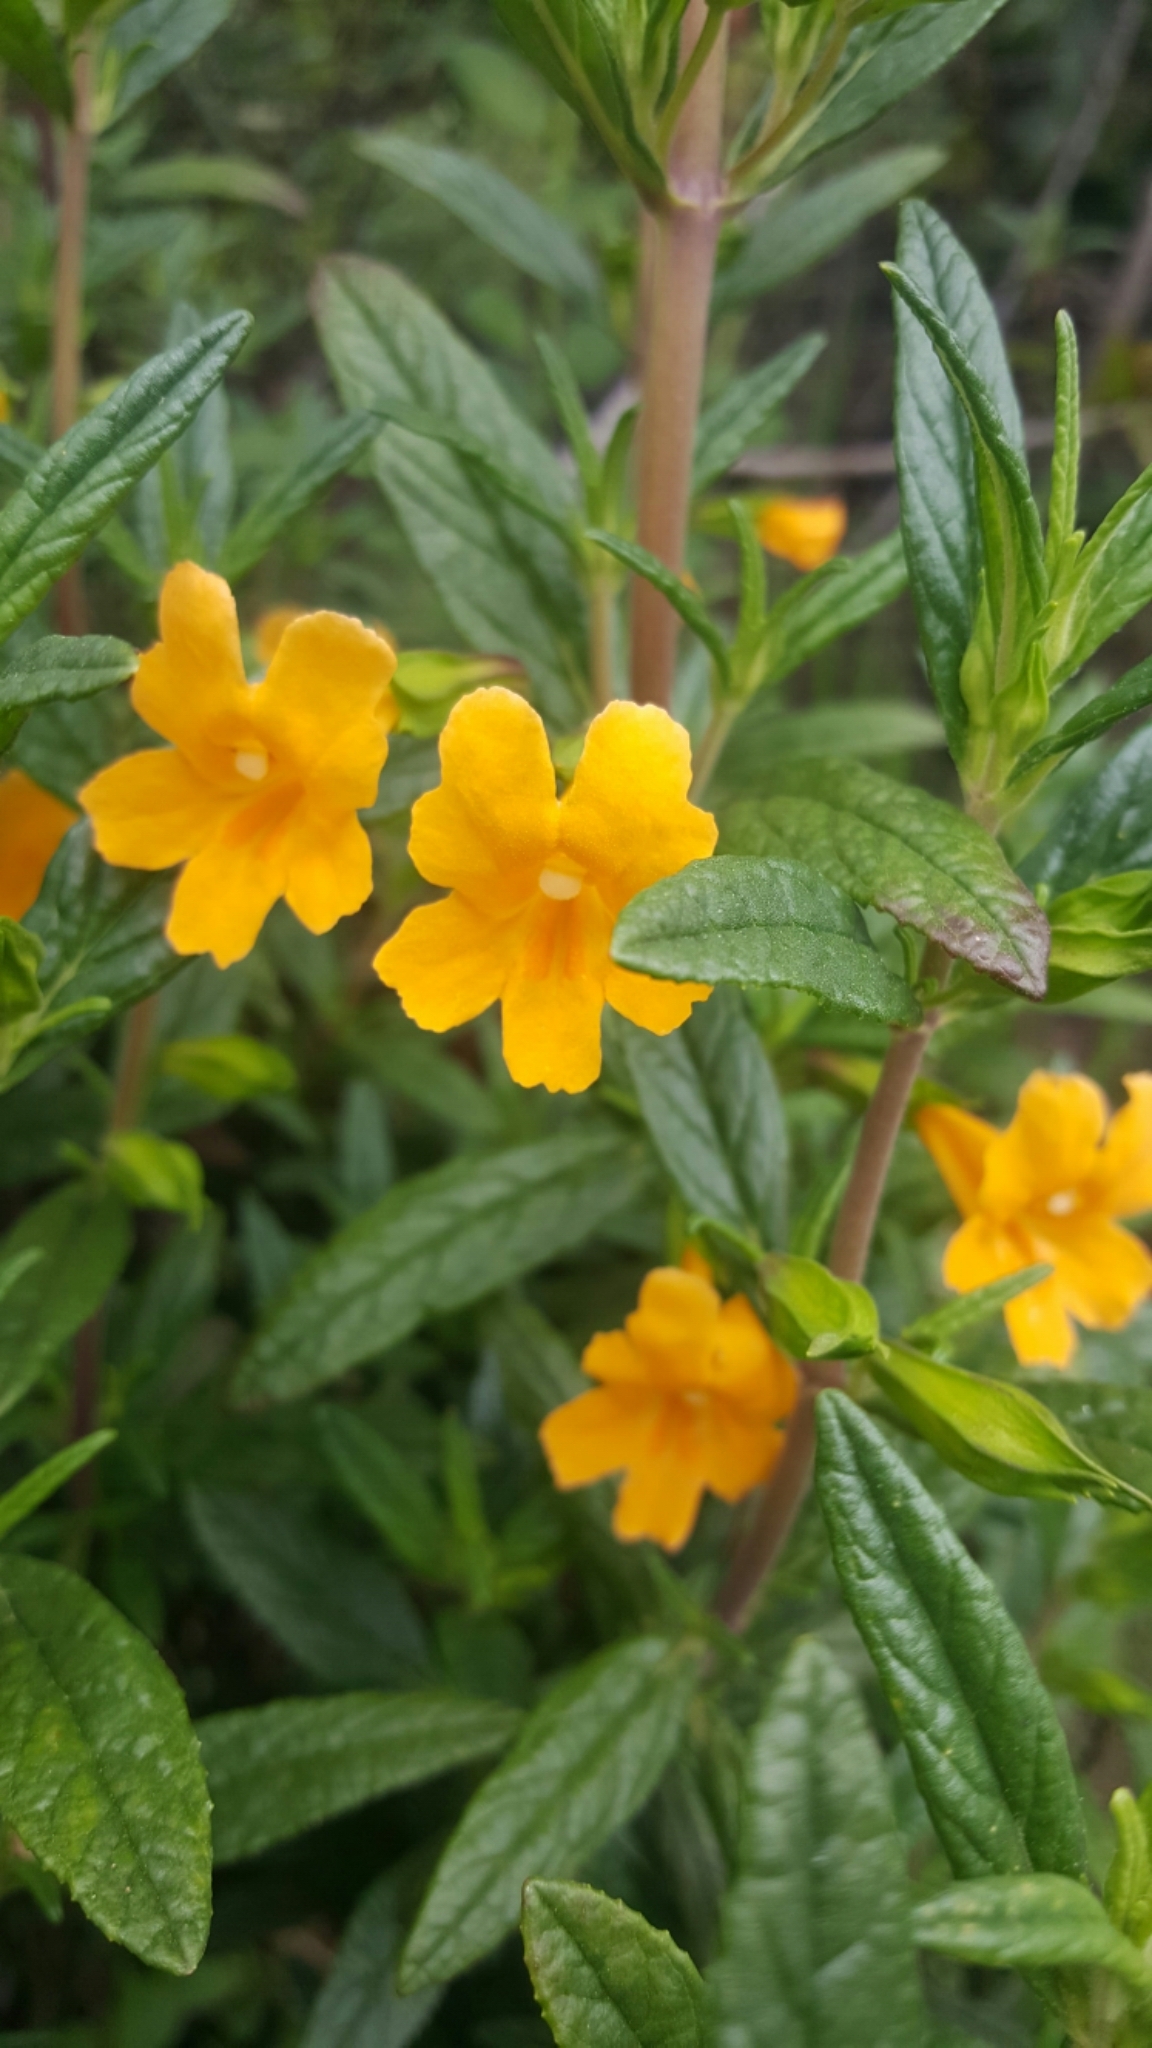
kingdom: Plantae
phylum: Tracheophyta
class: Magnoliopsida
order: Lamiales
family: Phrymaceae
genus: Diplacus
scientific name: Diplacus aurantiacus
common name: Bush monkey-flower
